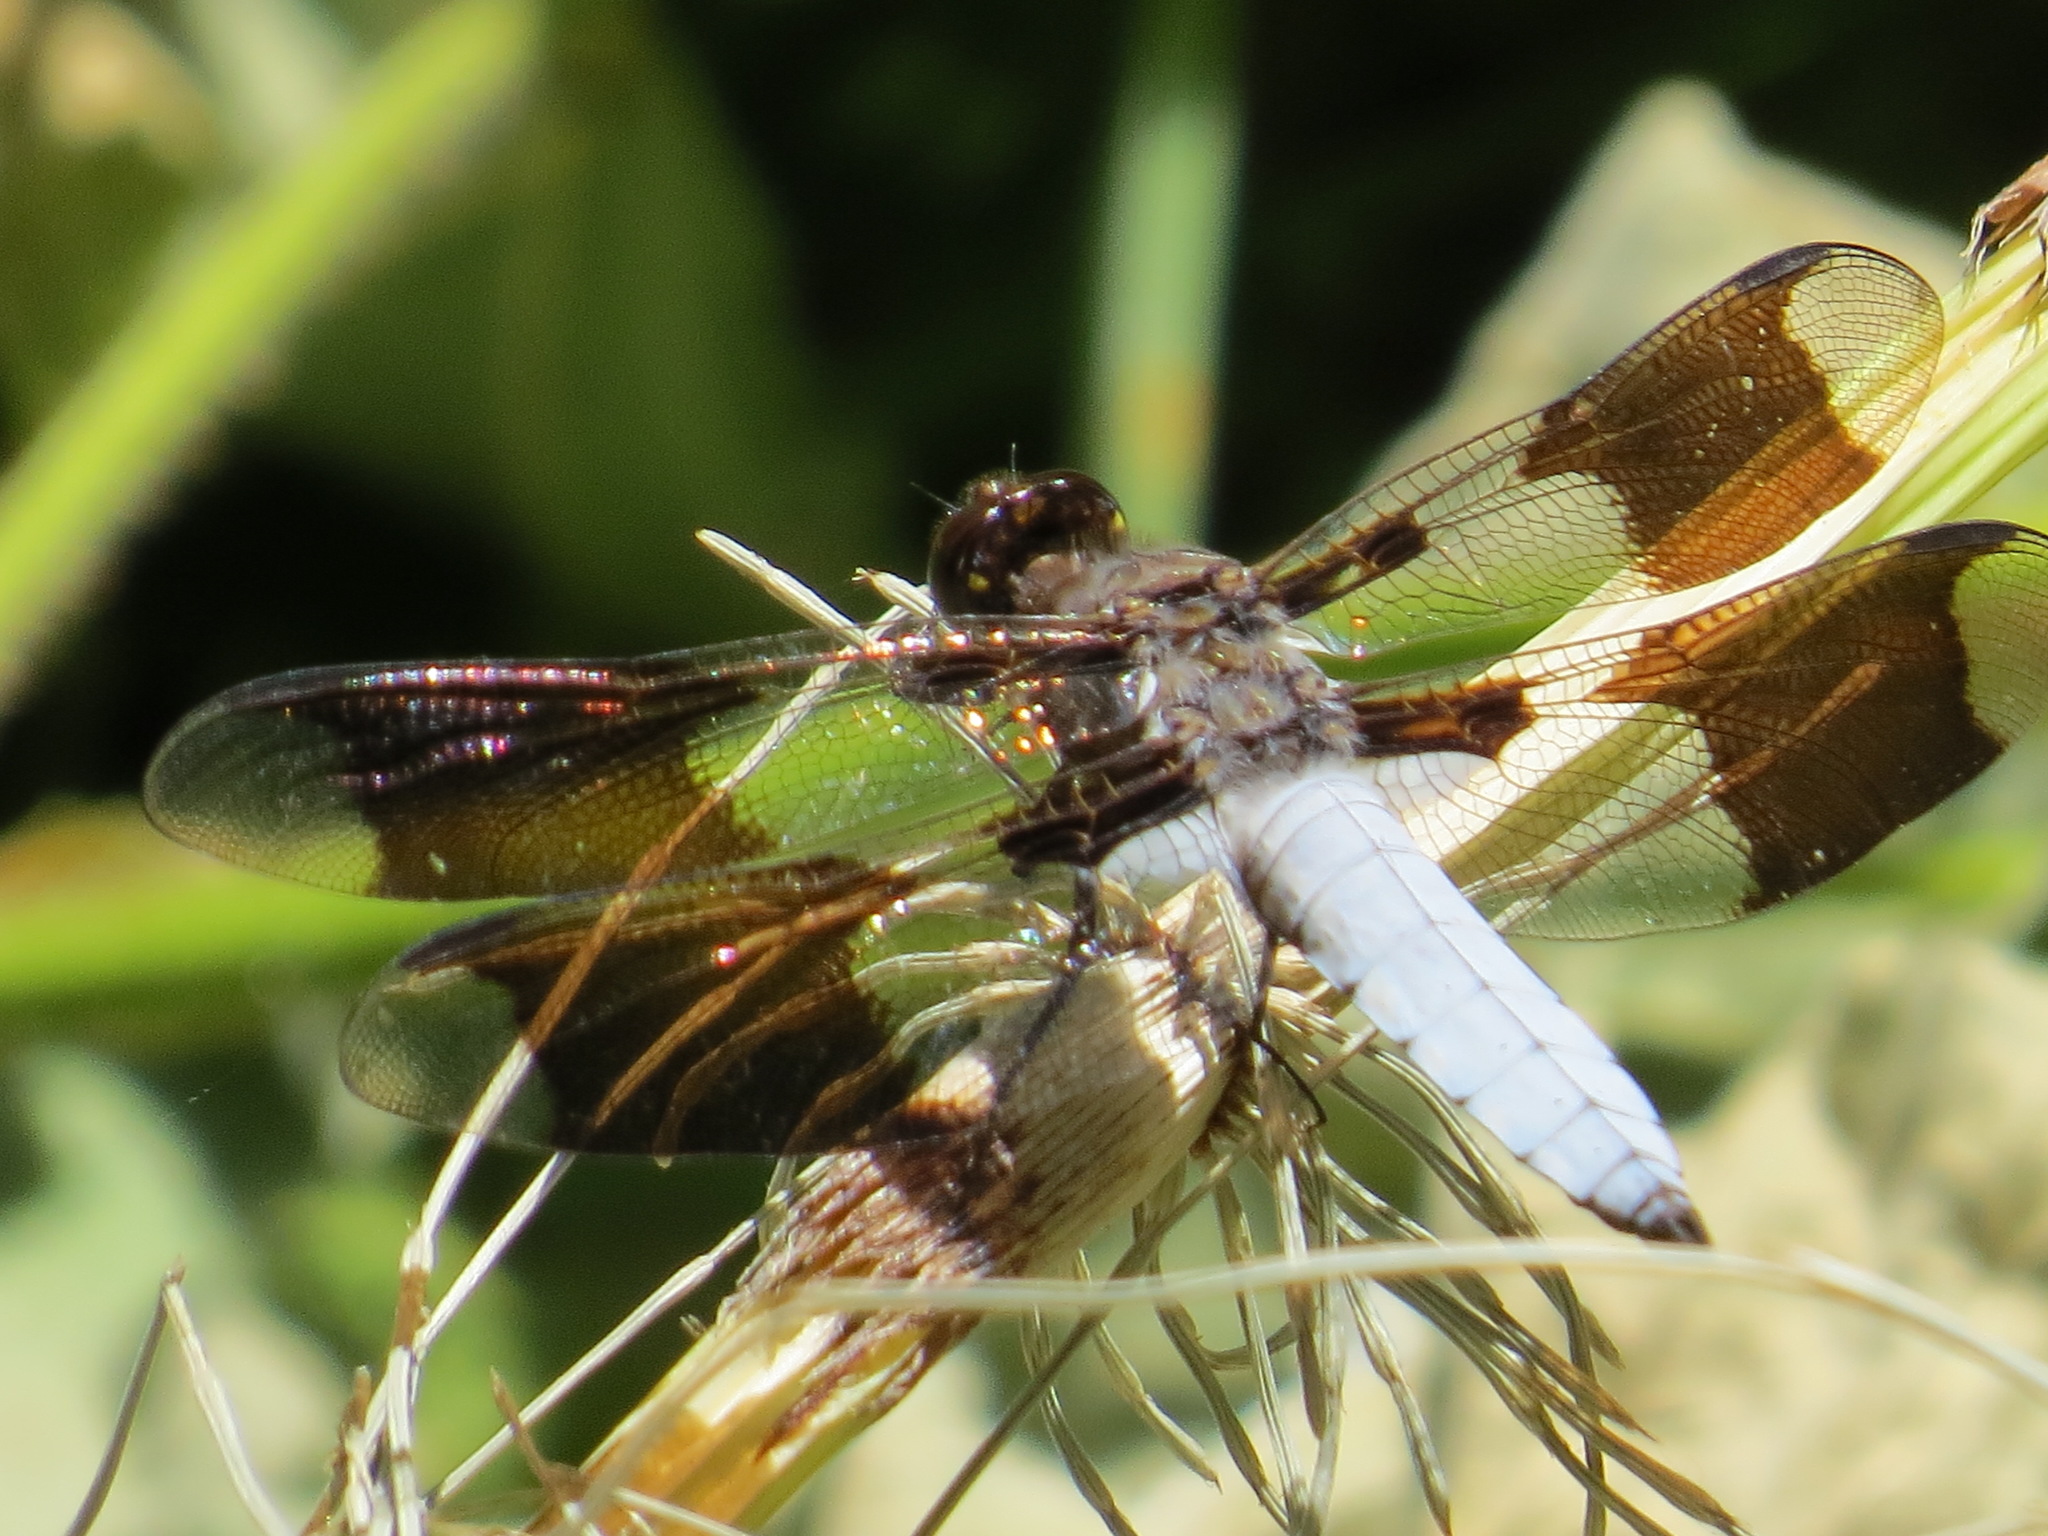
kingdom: Animalia
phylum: Arthropoda
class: Insecta
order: Odonata
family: Libellulidae
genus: Plathemis
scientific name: Plathemis lydia
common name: Common whitetail
